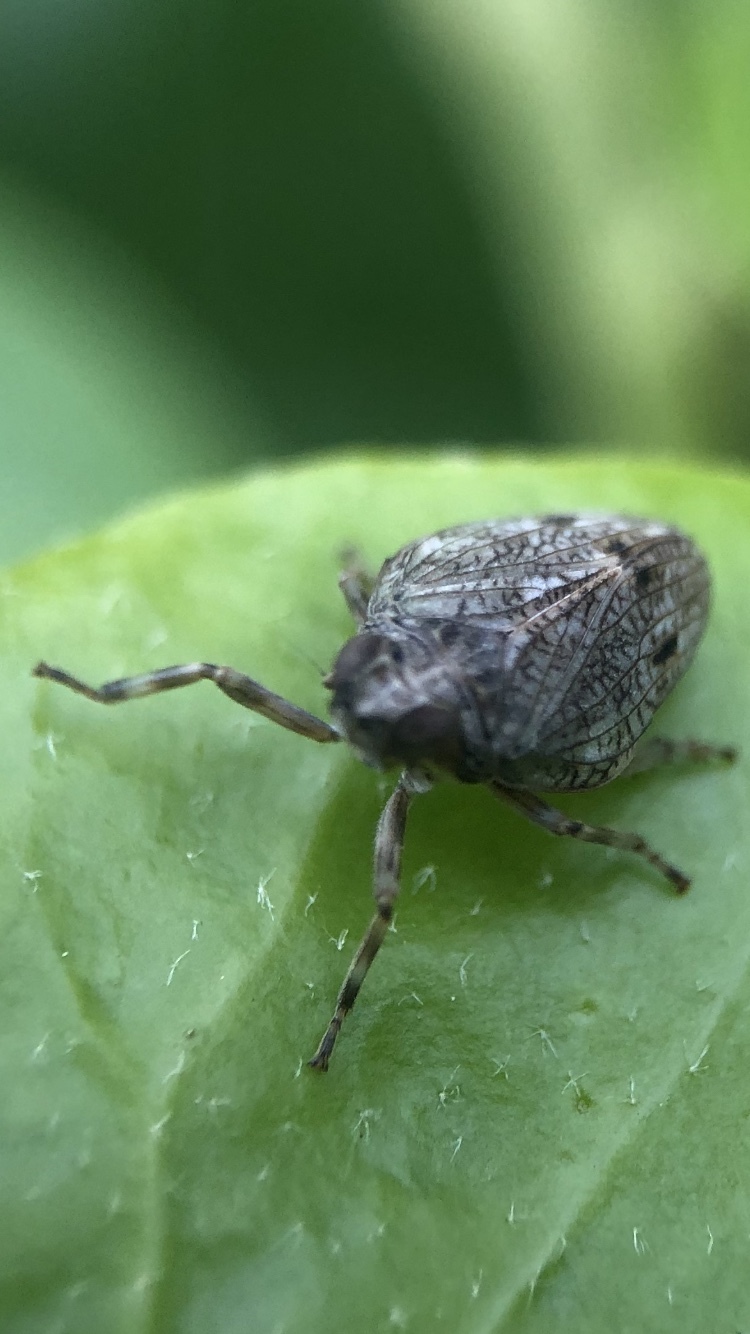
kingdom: Animalia
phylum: Arthropoda
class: Insecta
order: Hemiptera
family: Issidae
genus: Issus
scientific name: Issus coleoptratus
